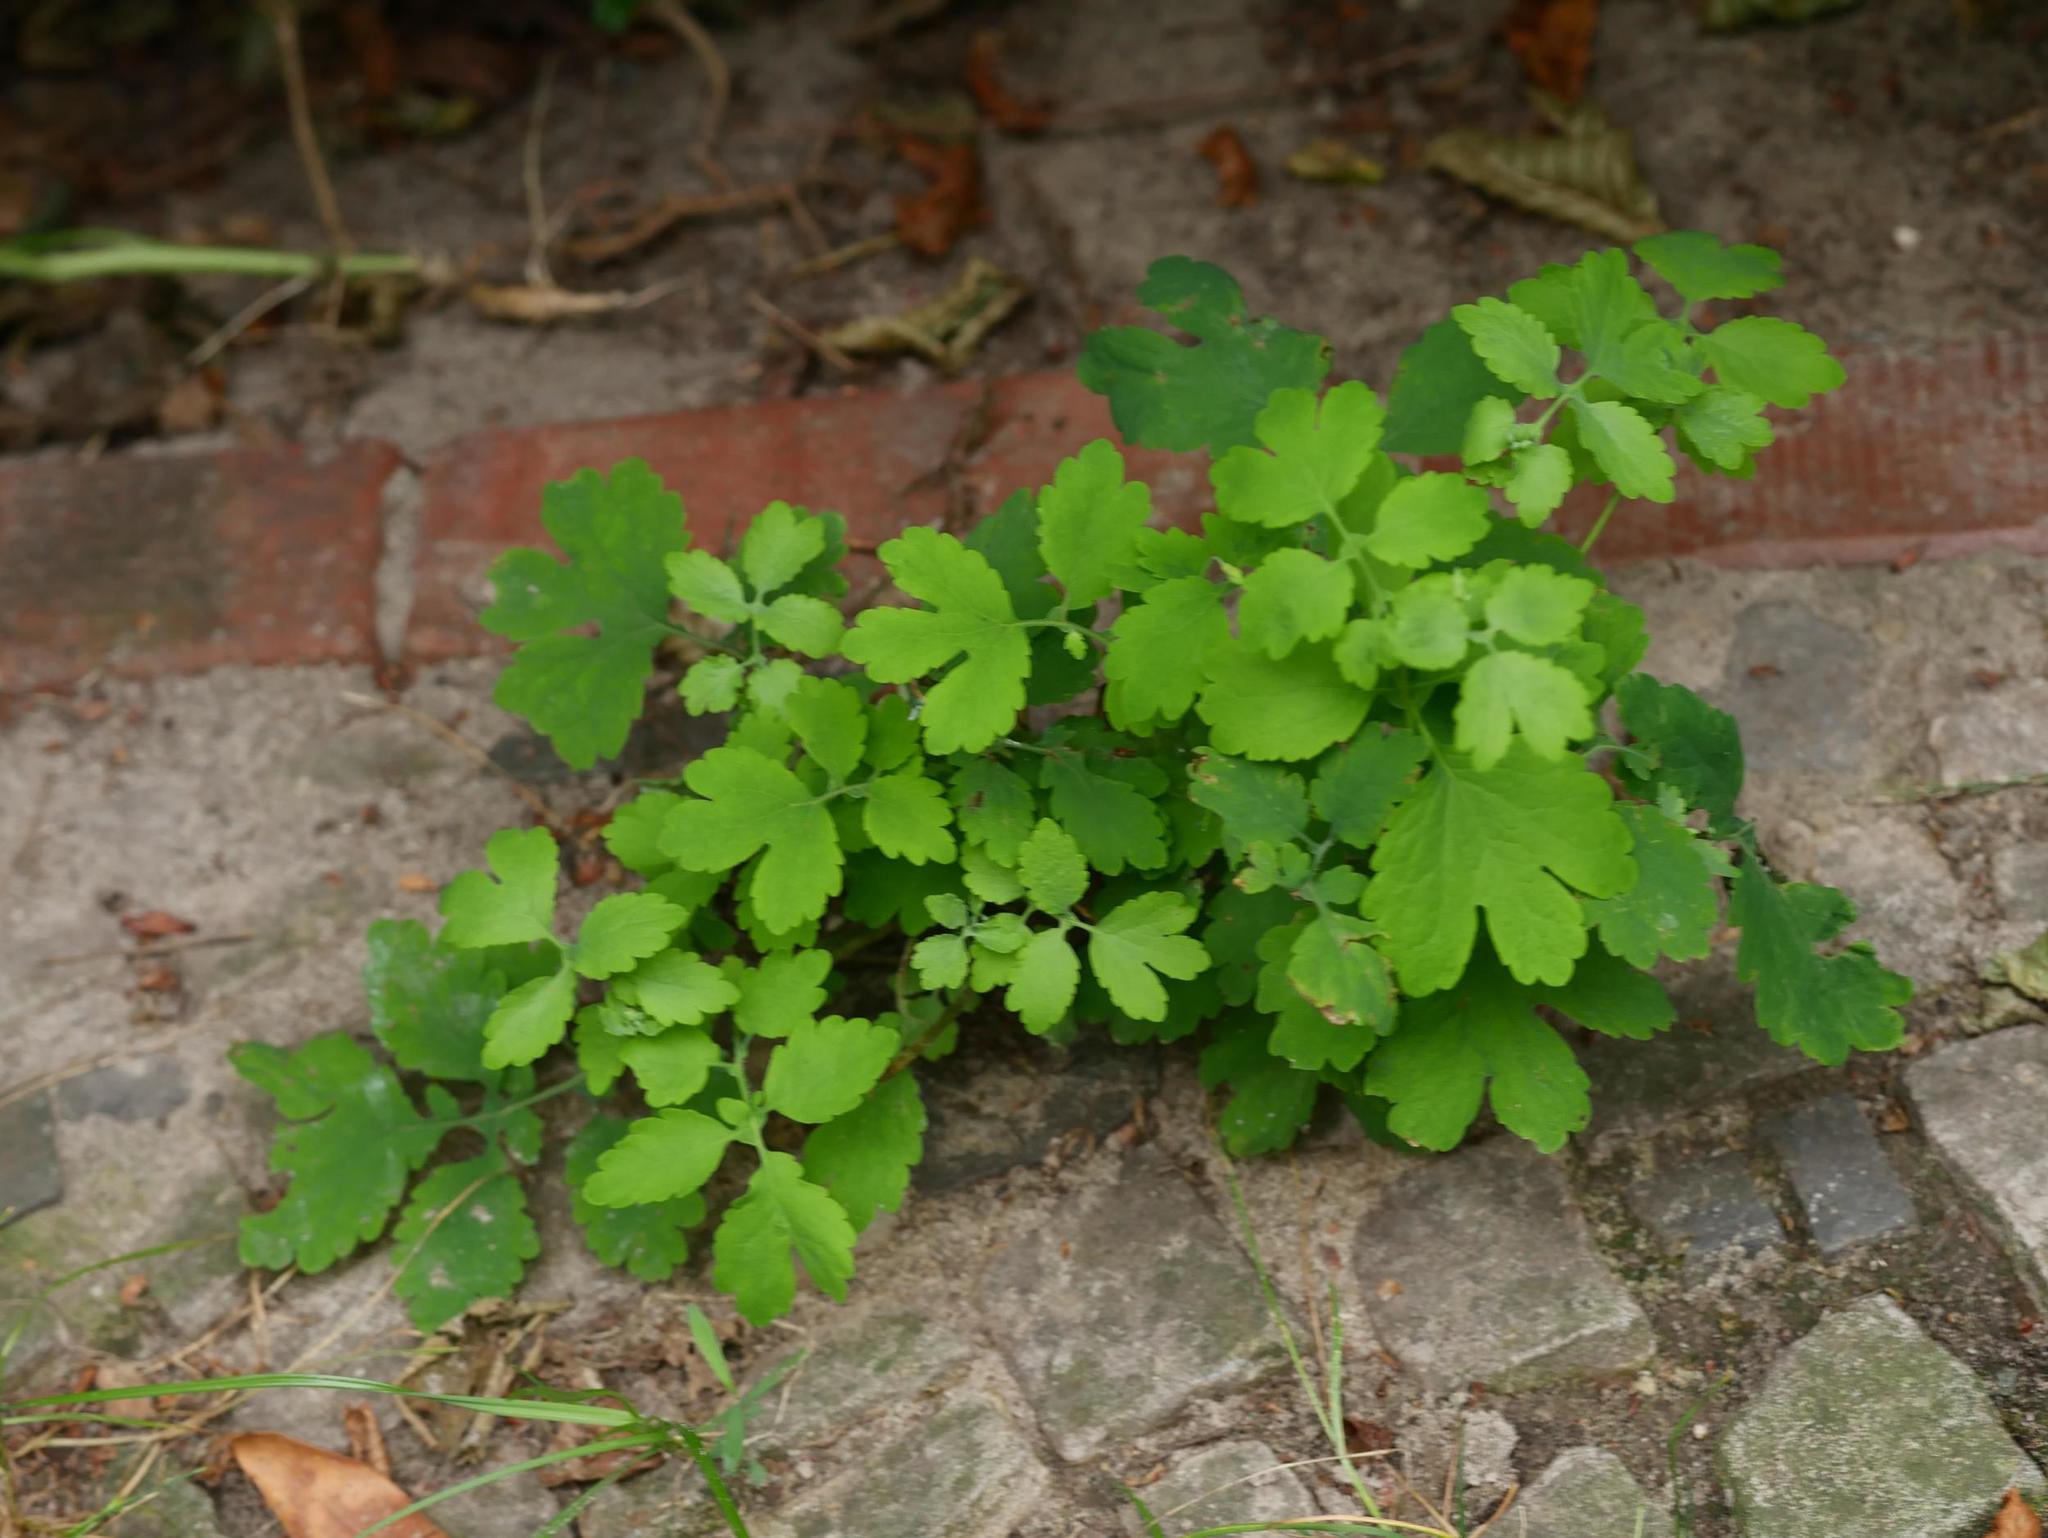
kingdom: Plantae
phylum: Tracheophyta
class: Magnoliopsida
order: Ranunculales
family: Papaveraceae
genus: Chelidonium
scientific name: Chelidonium majus
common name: Greater celandine
